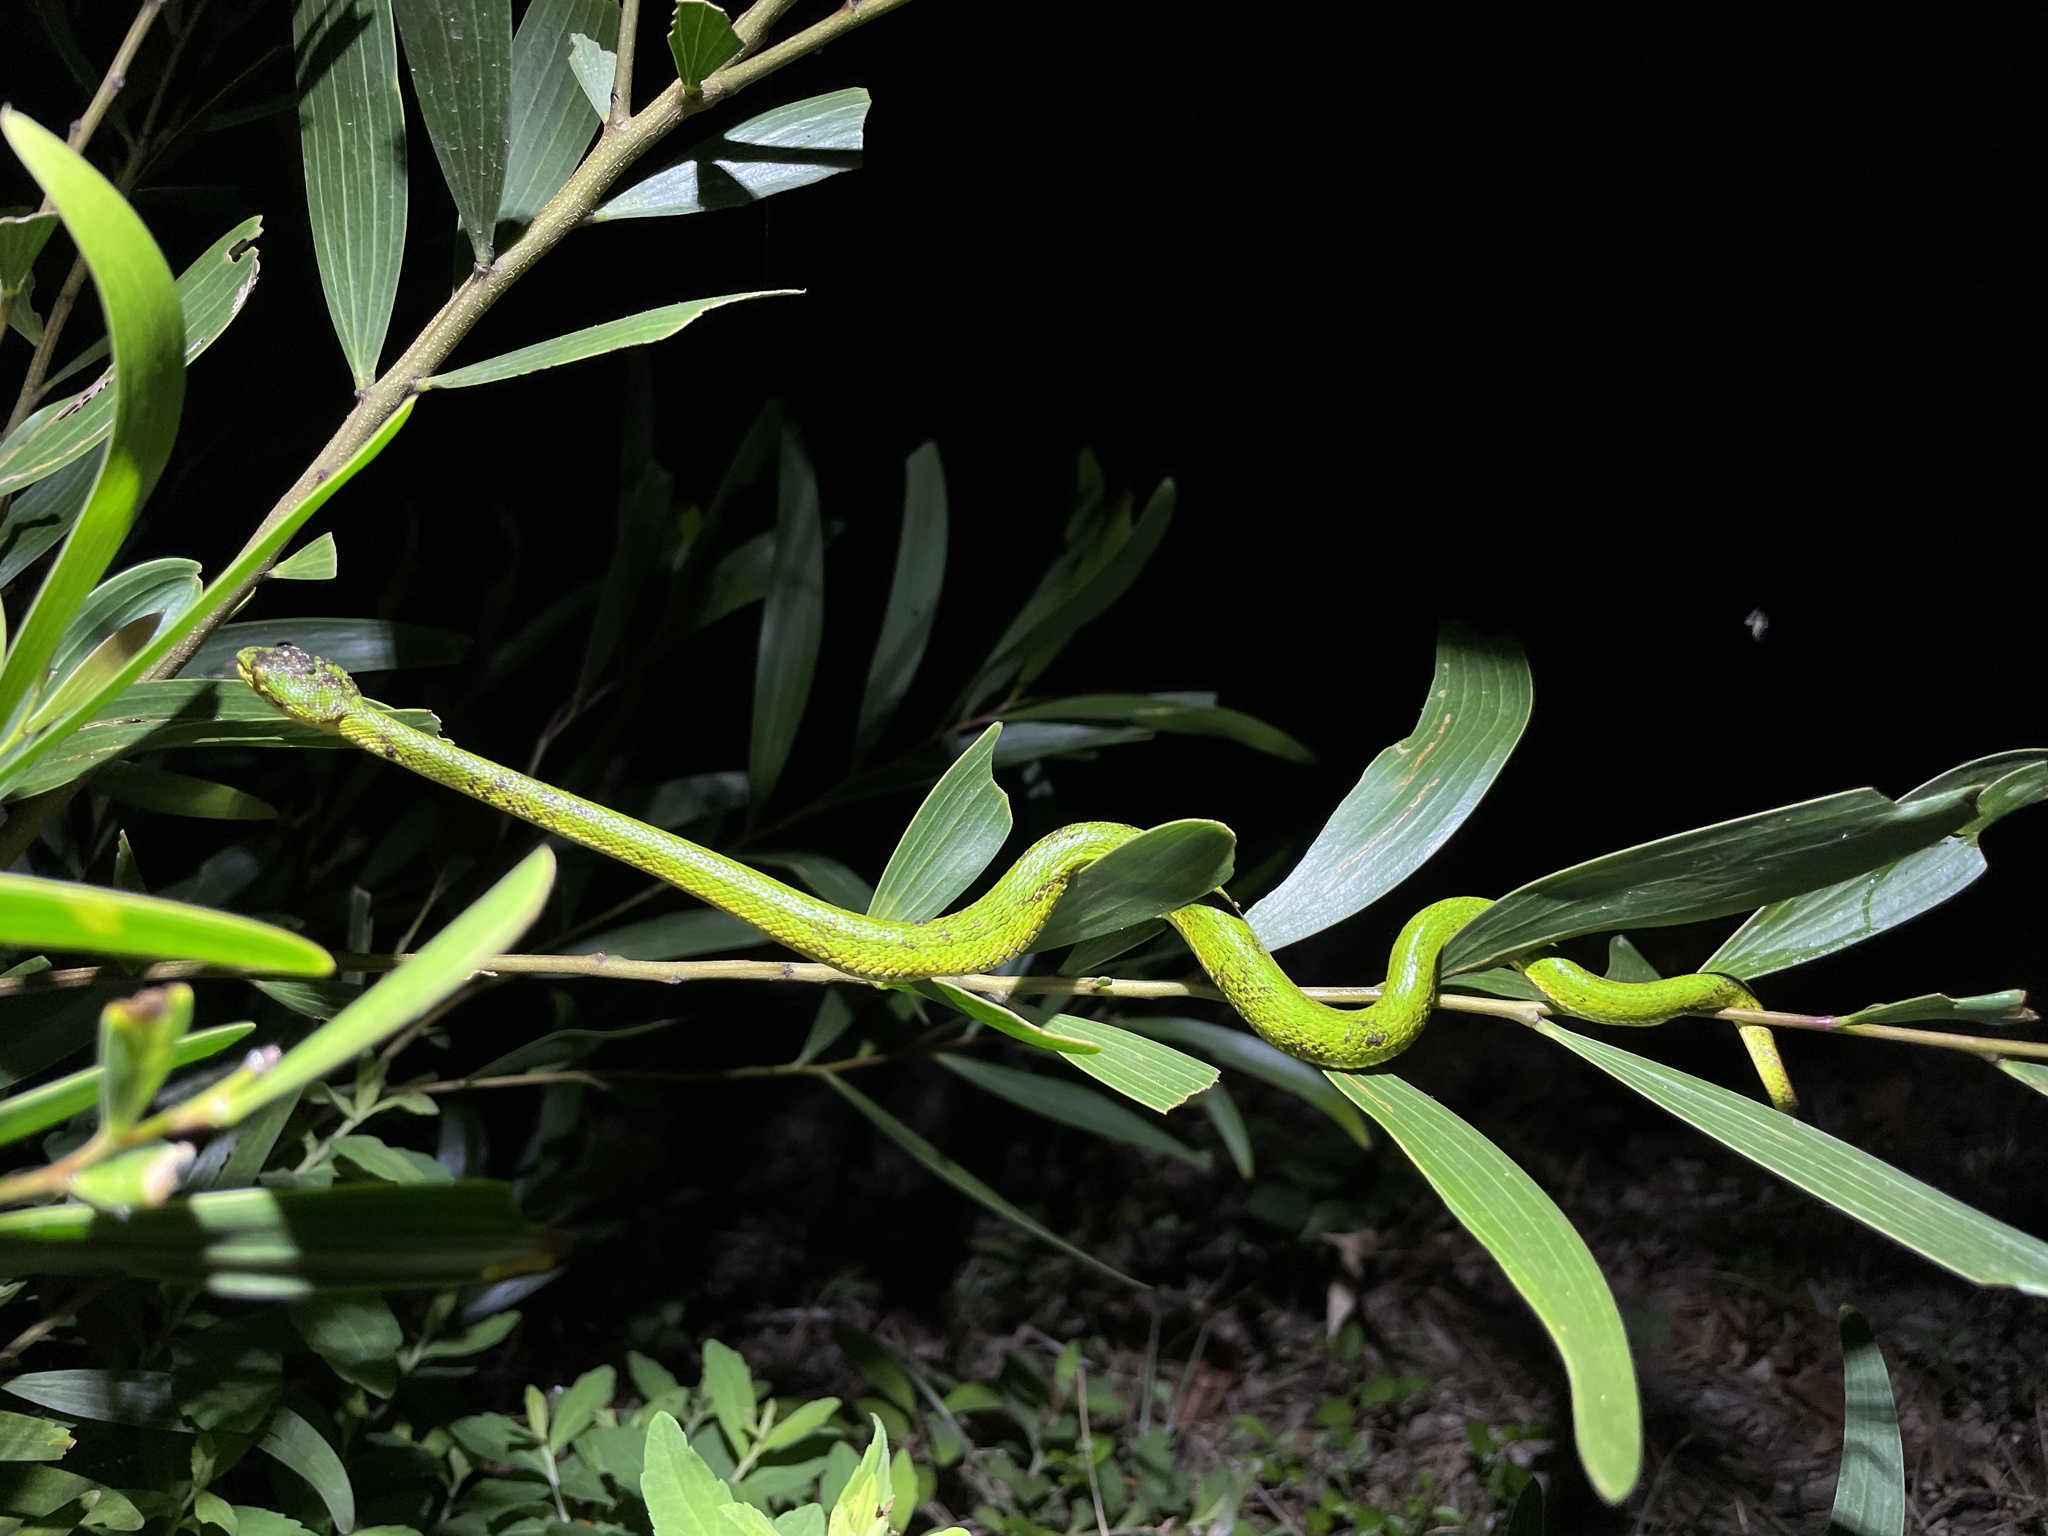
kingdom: Animalia
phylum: Chordata
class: Squamata
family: Viperidae
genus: Trimeresurus
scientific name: Trimeresurus albolabris
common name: White-lipped pitviper
